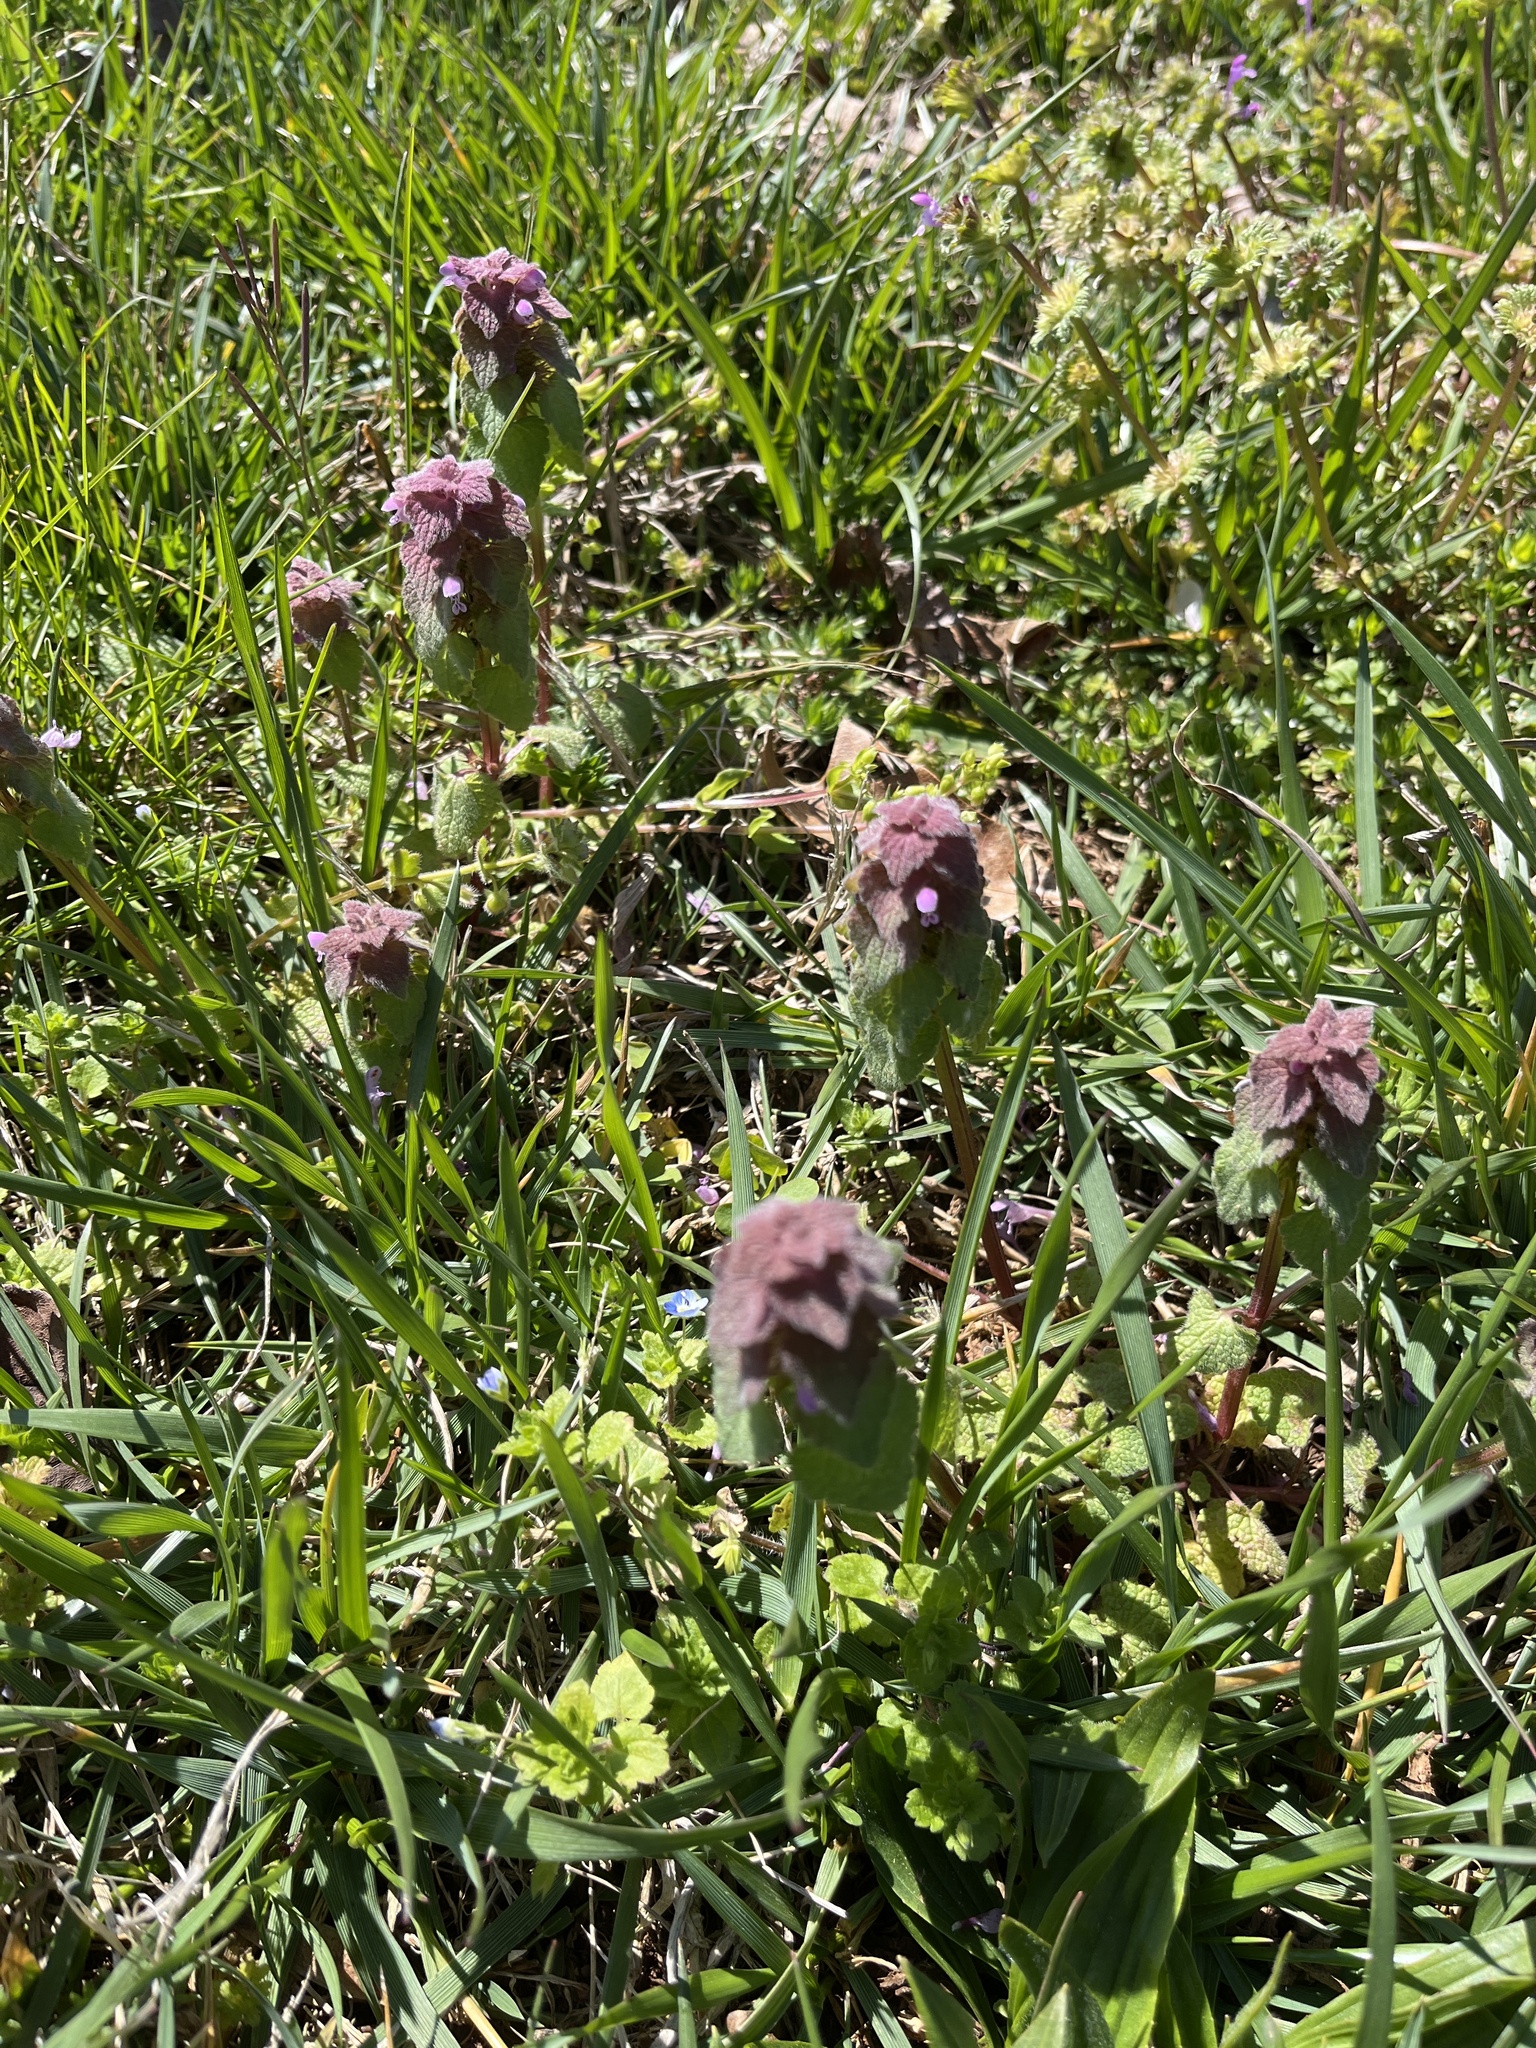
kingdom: Plantae
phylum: Tracheophyta
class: Magnoliopsida
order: Lamiales
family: Lamiaceae
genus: Lamium
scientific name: Lamium purpureum
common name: Red dead-nettle
